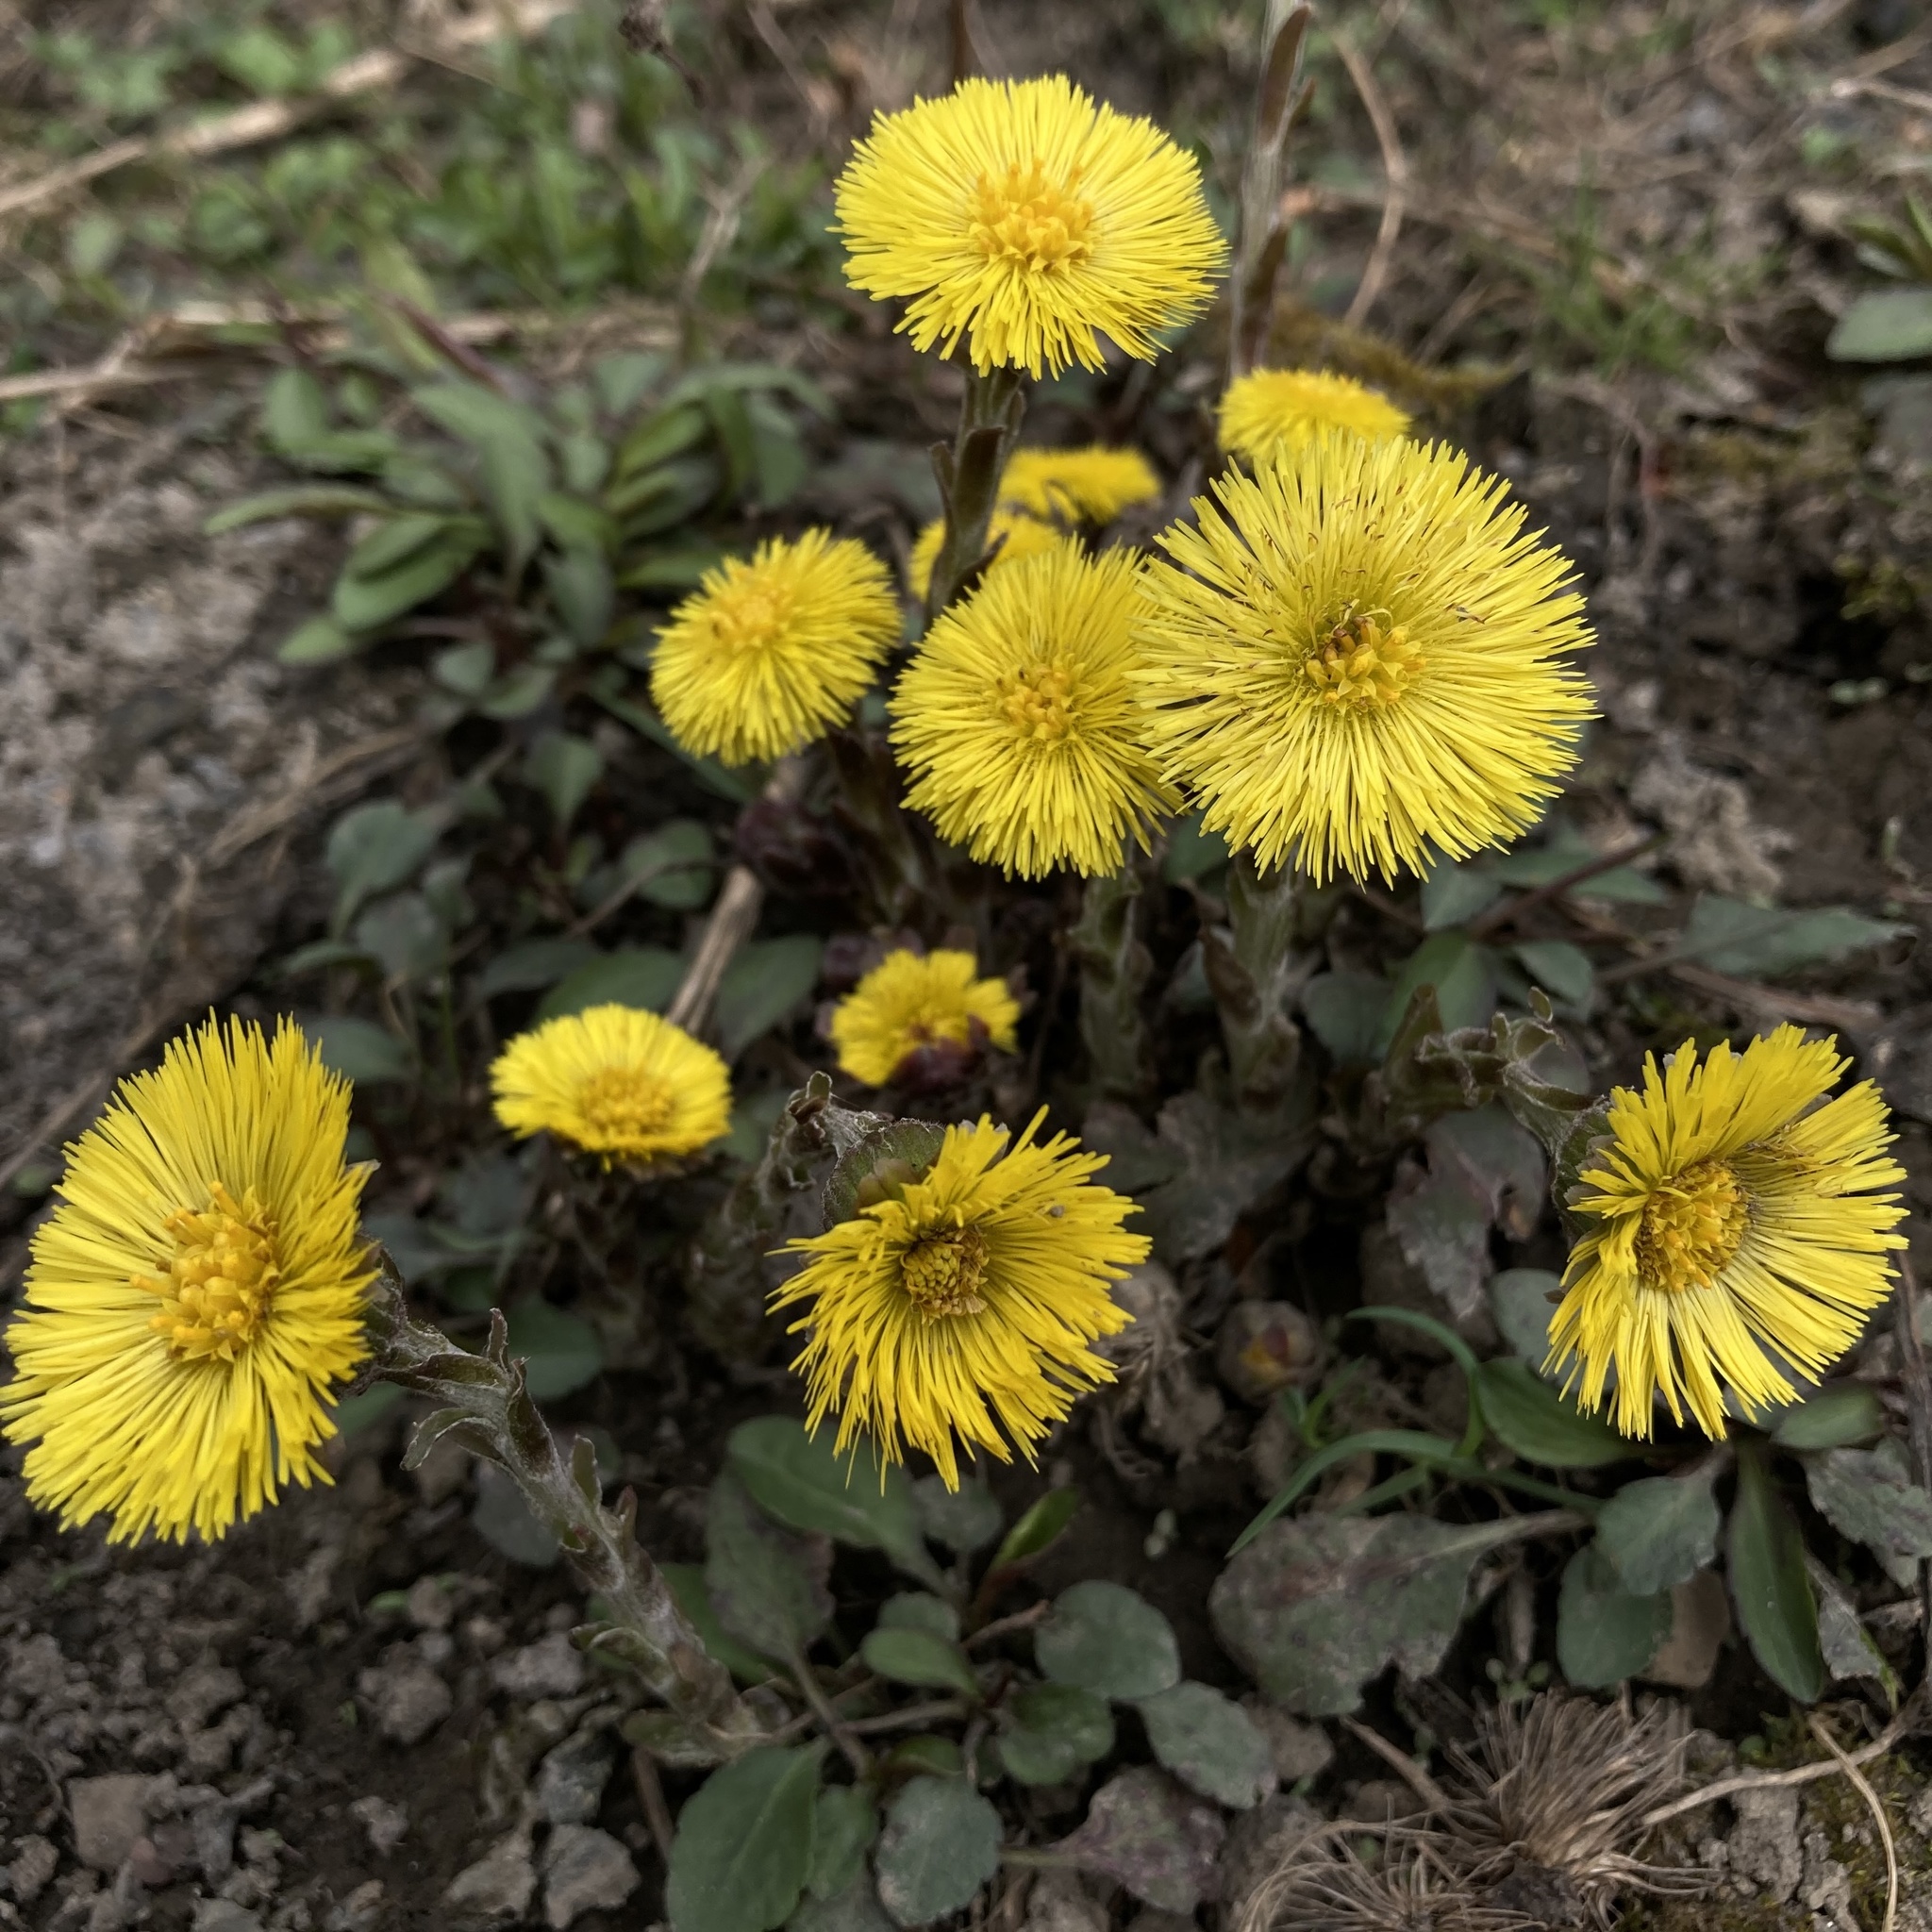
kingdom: Plantae
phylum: Tracheophyta
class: Magnoliopsida
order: Asterales
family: Asteraceae
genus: Tussilago
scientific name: Tussilago farfara
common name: Coltsfoot
